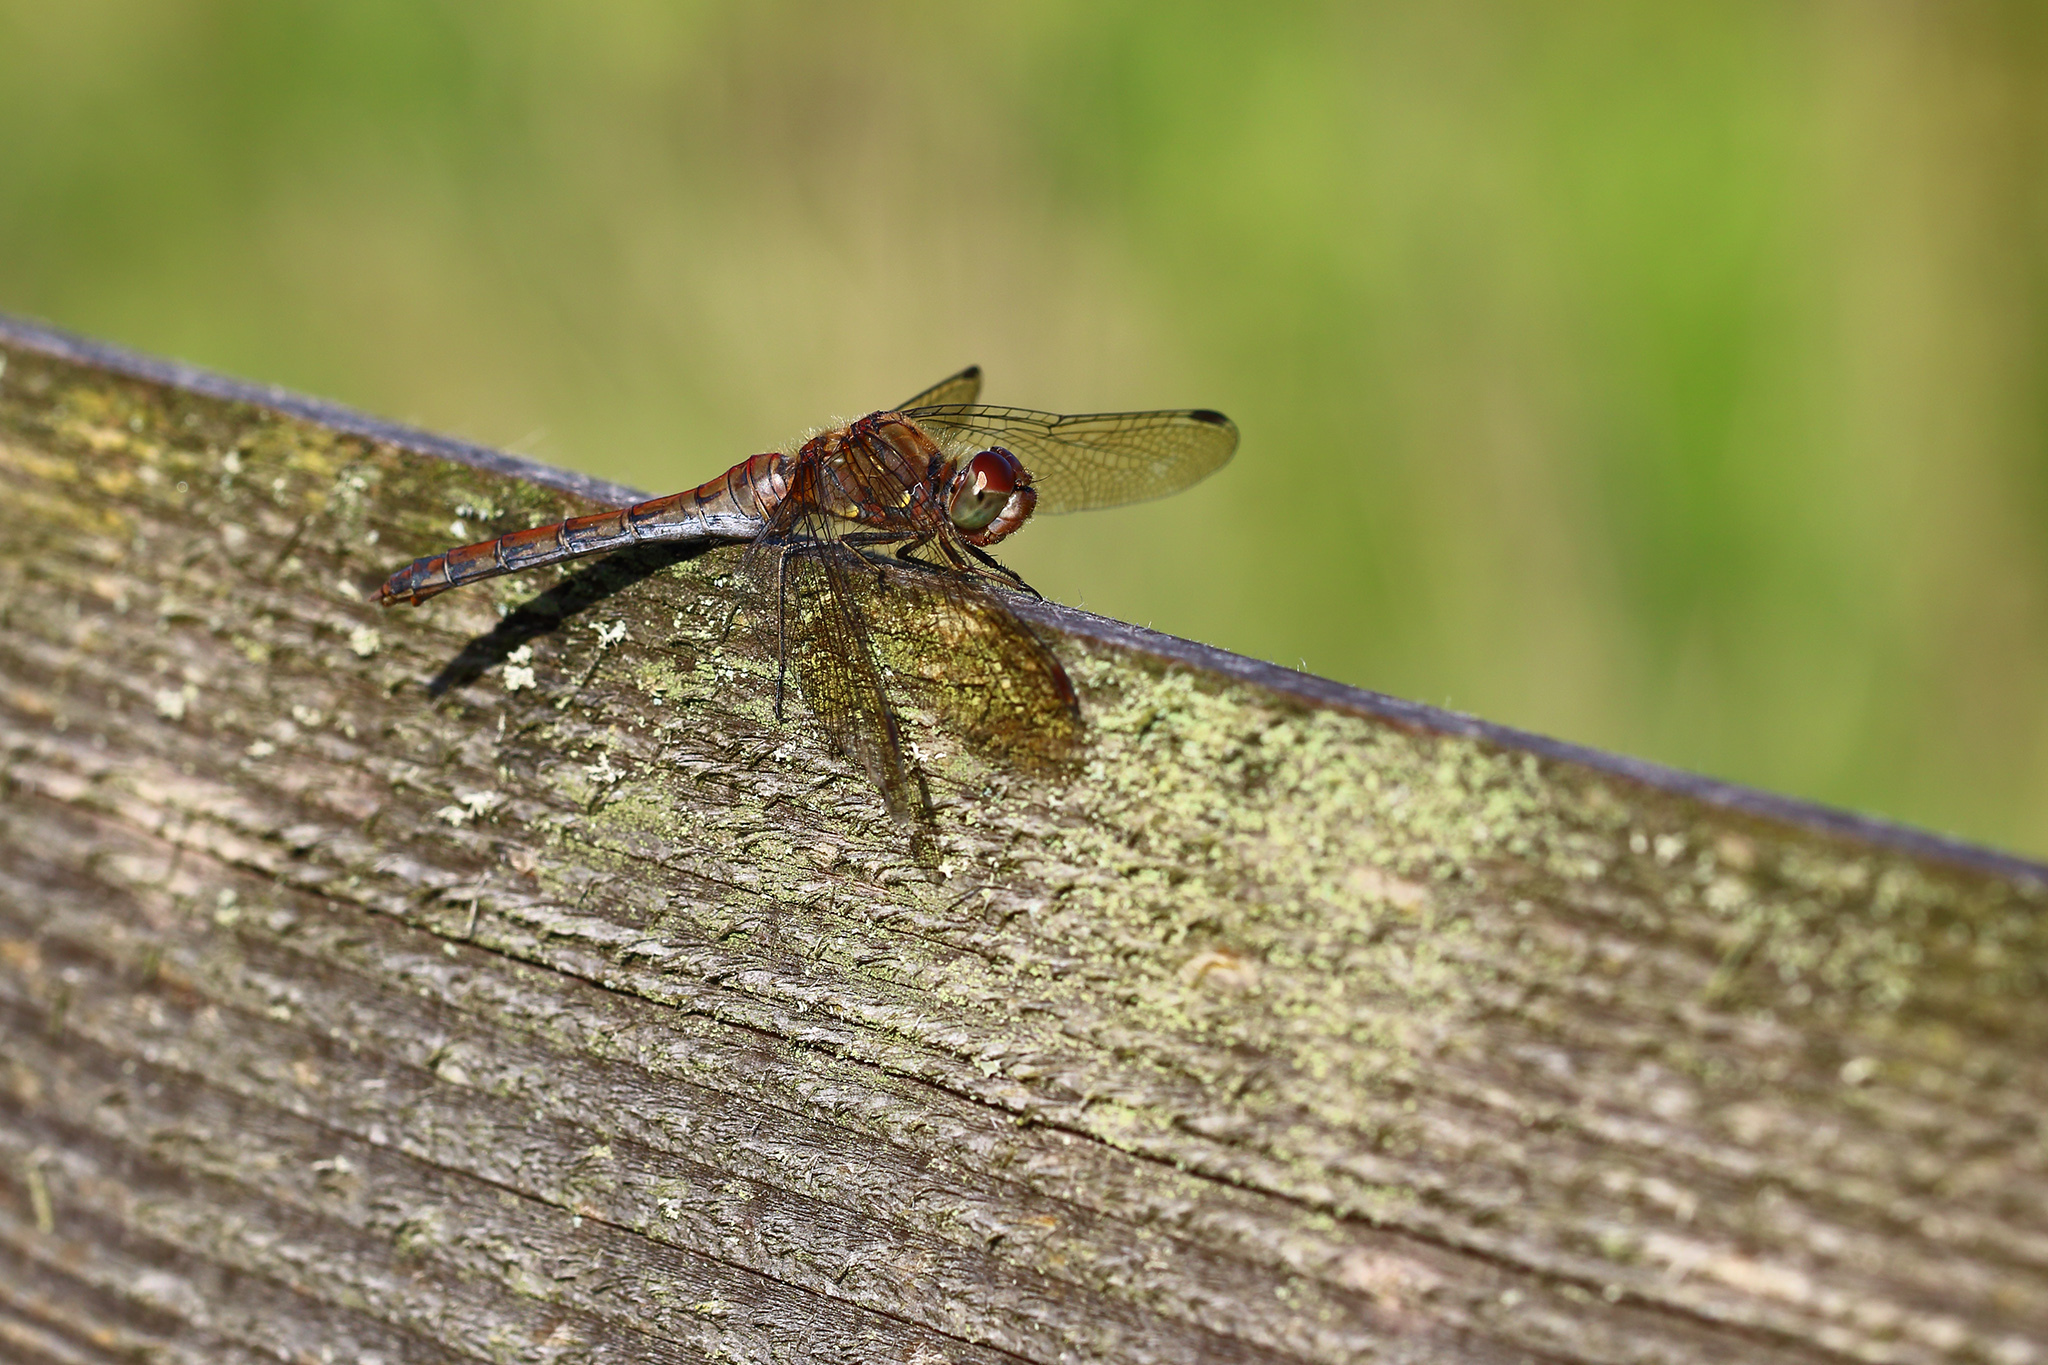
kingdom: Animalia
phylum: Arthropoda
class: Insecta
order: Odonata
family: Libellulidae
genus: Sympetrum
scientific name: Sympetrum striolatum
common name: Common darter
